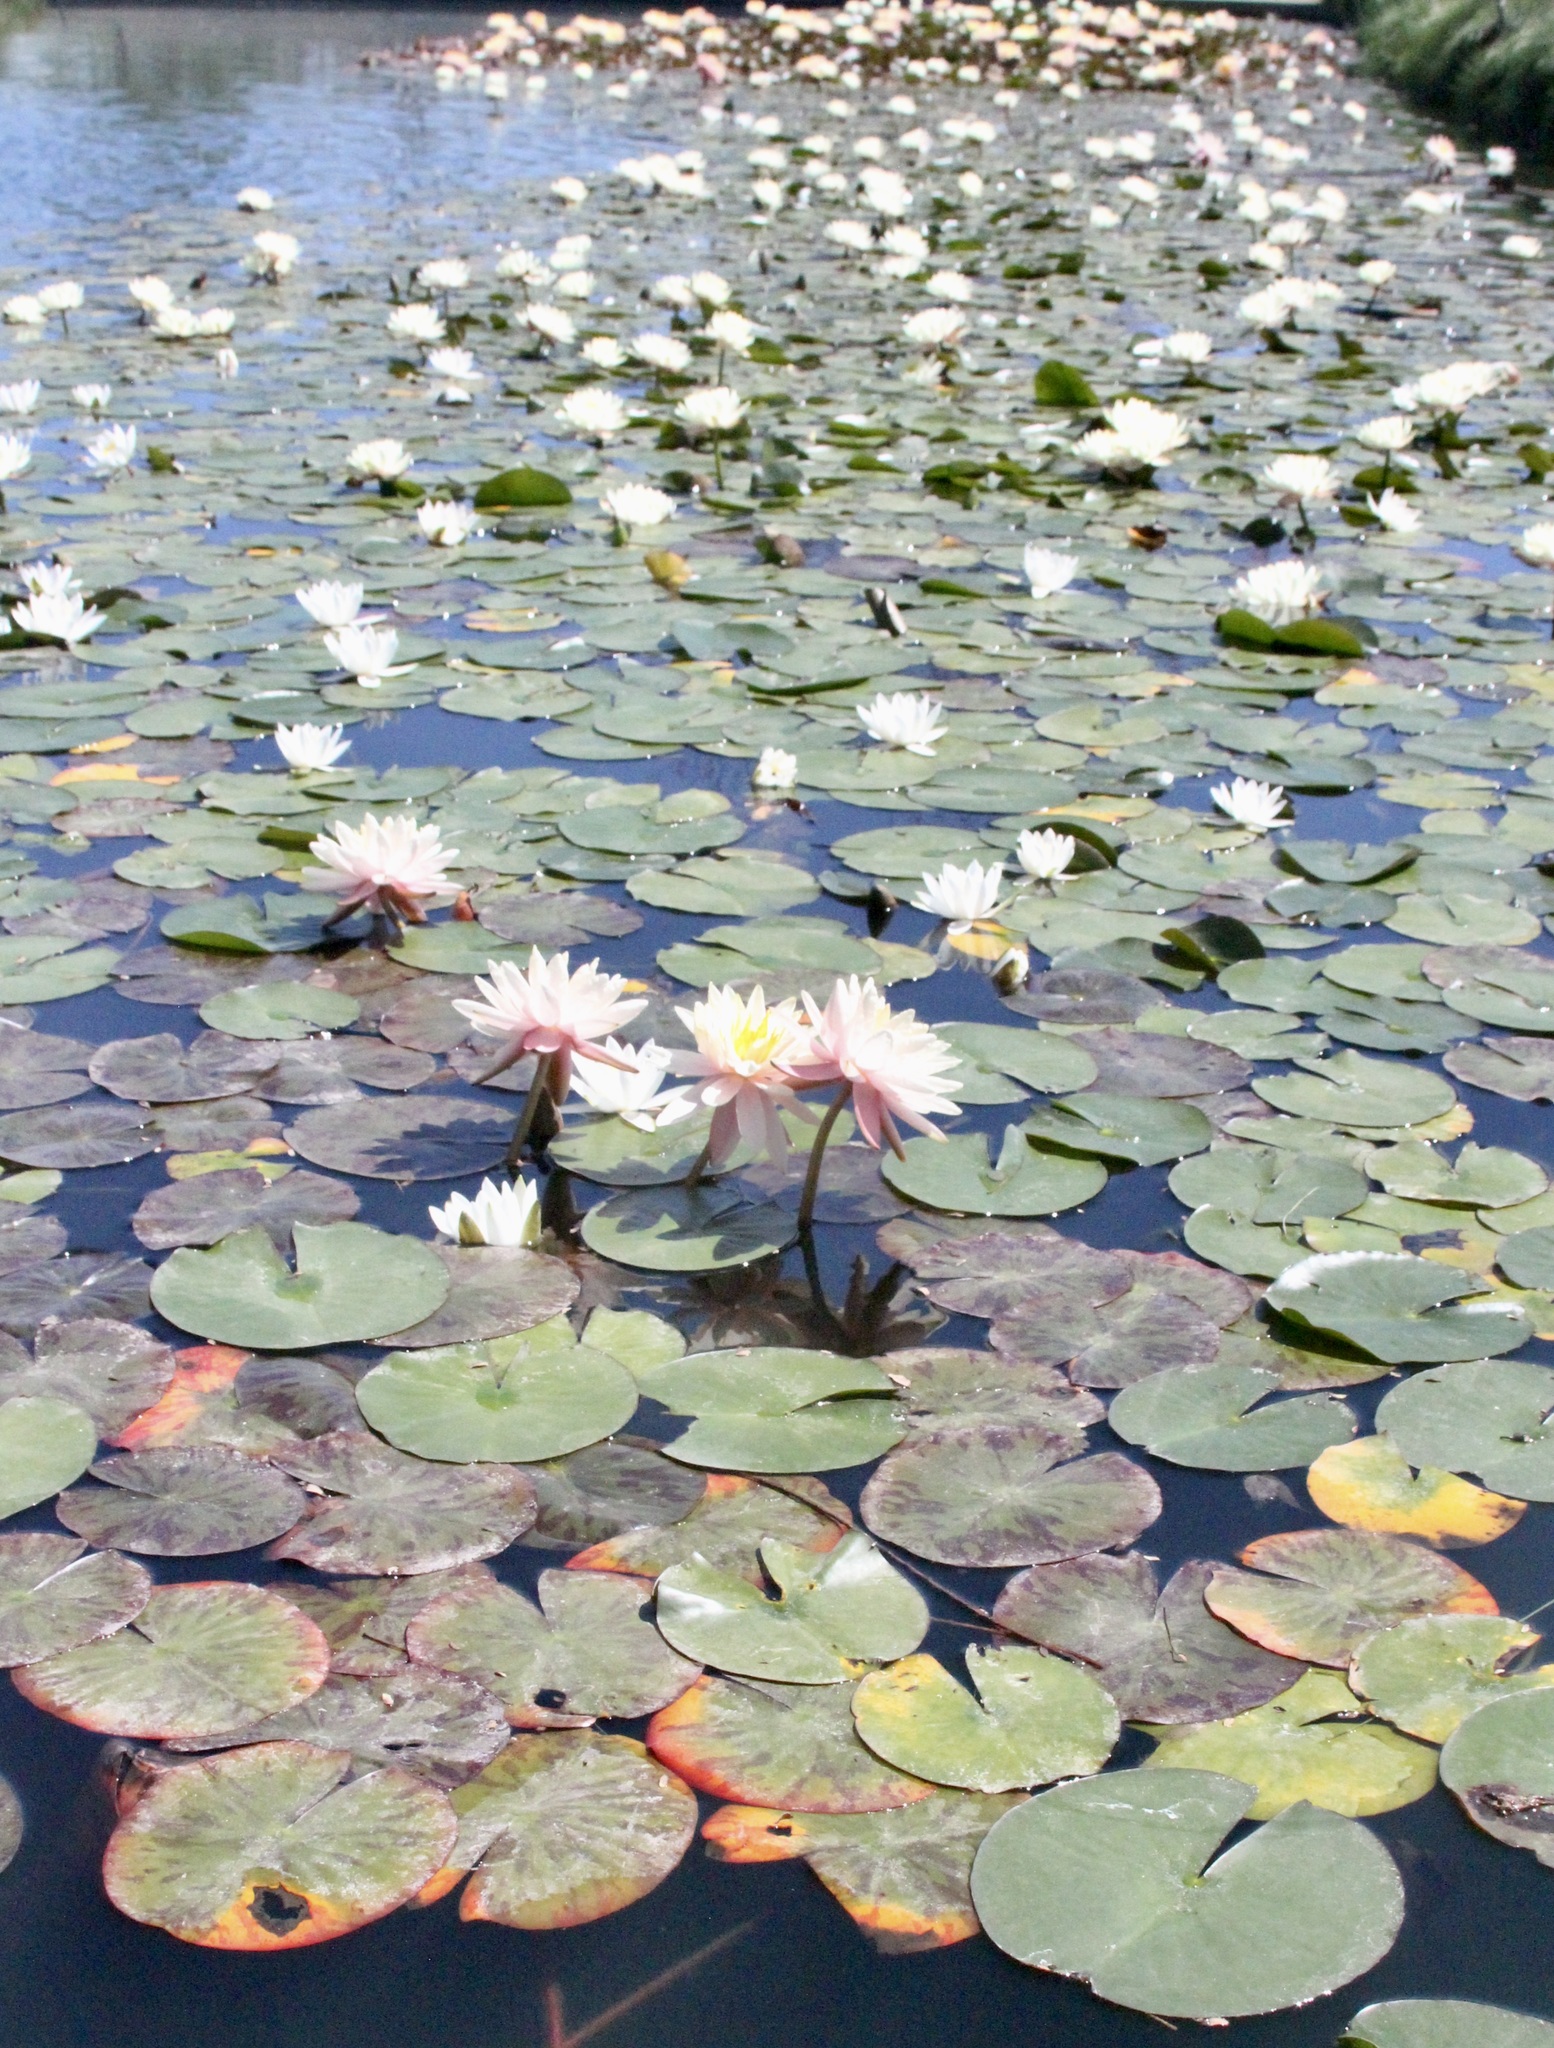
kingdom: Plantae
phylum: Tracheophyta
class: Magnoliopsida
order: Nymphaeales
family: Nymphaeaceae
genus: Nymphaea
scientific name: Nymphaea odorata
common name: Fragrant water-lily
